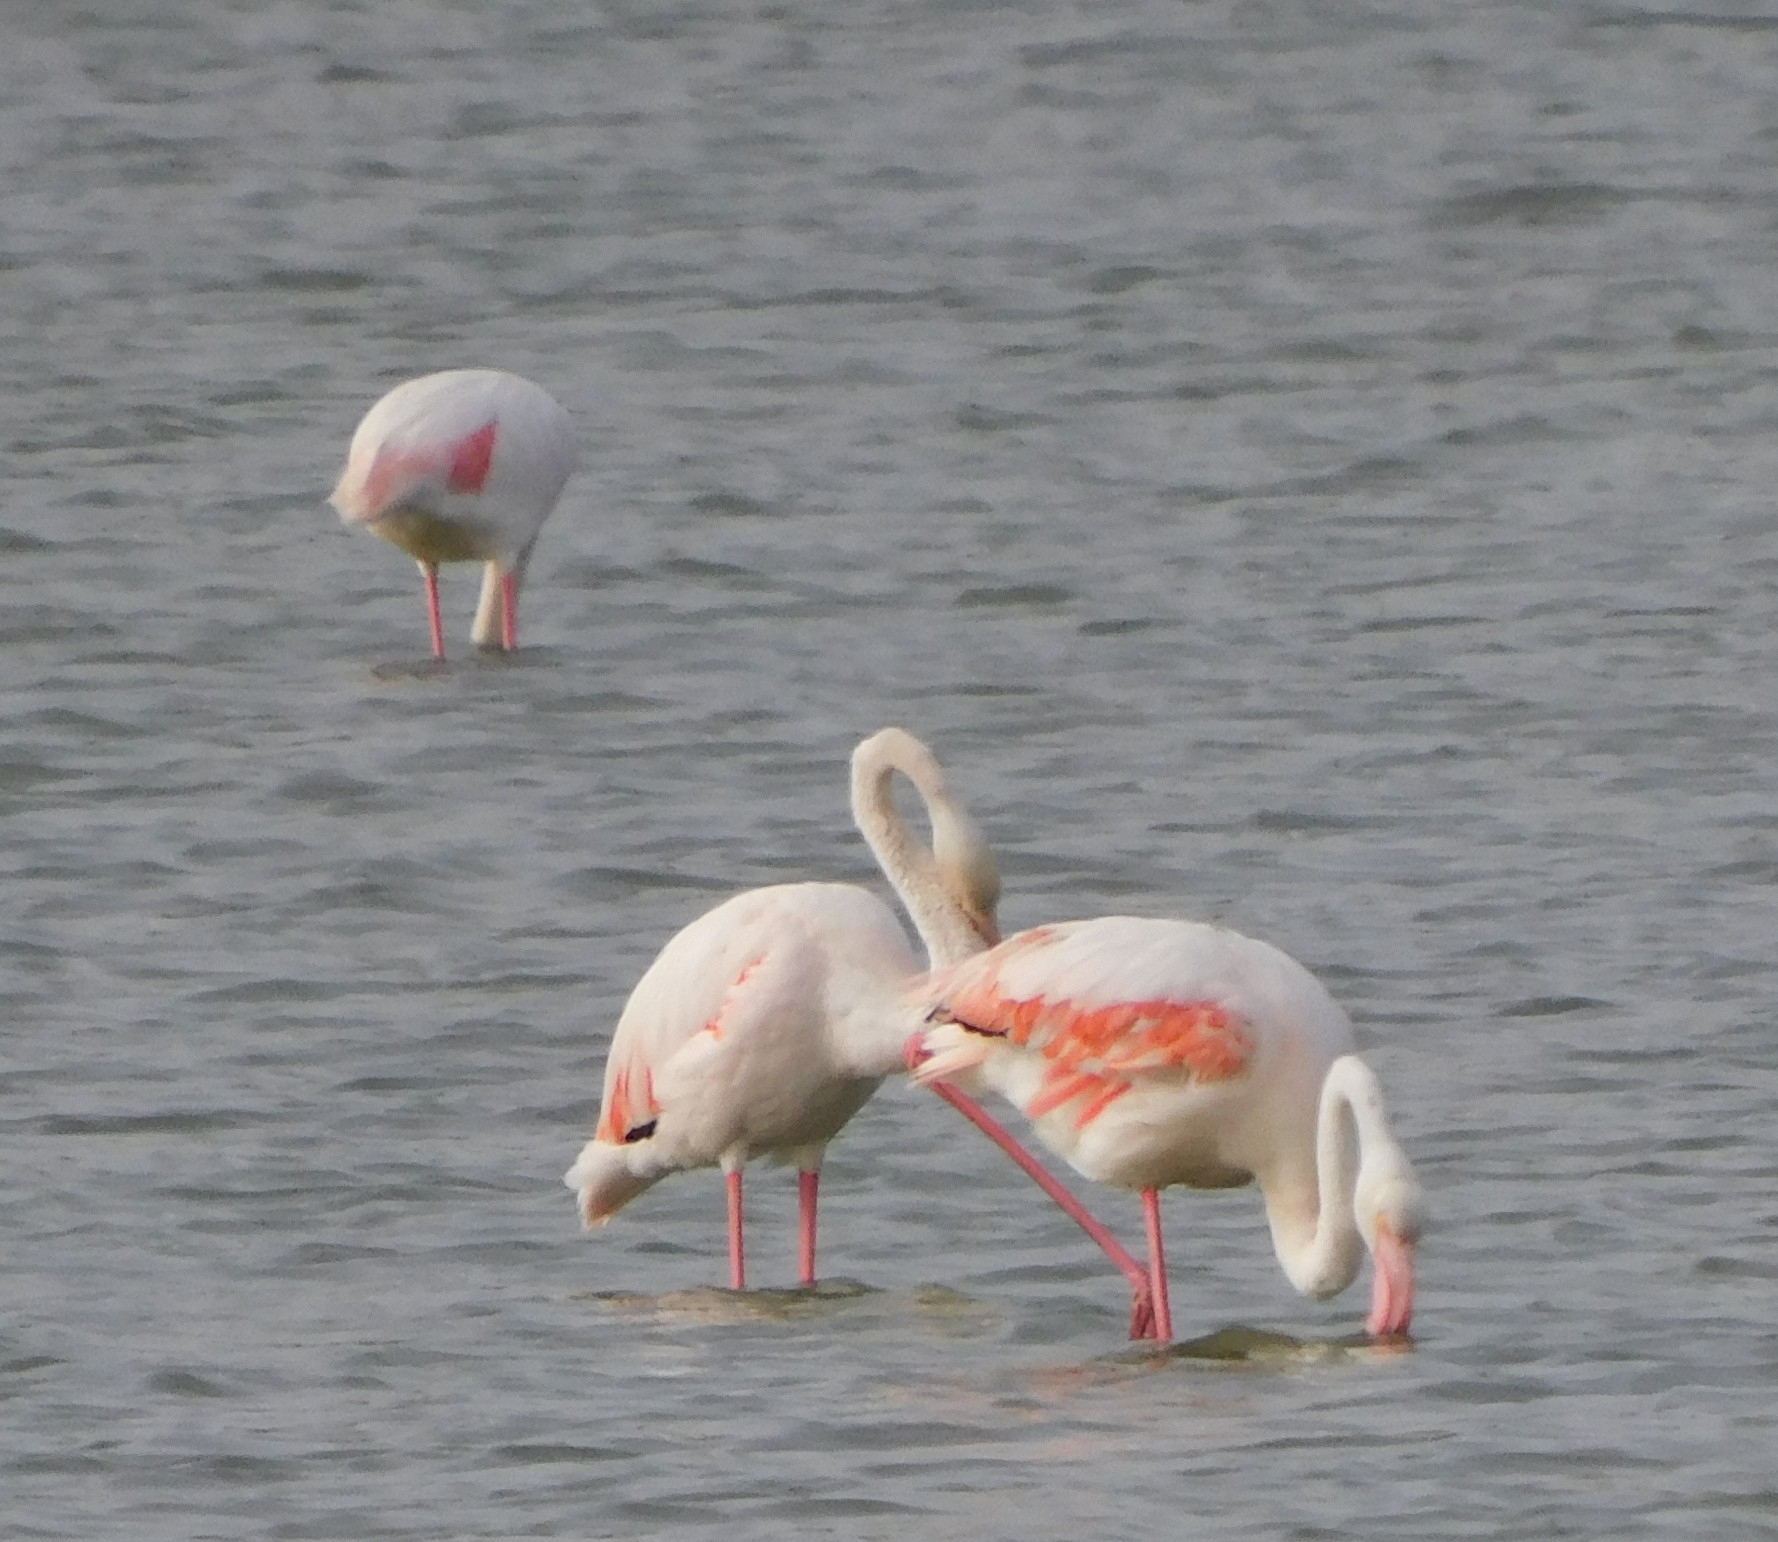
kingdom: Animalia
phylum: Chordata
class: Aves
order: Phoenicopteriformes
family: Phoenicopteridae
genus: Phoenicopterus
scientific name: Phoenicopterus roseus
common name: Greater flamingo
